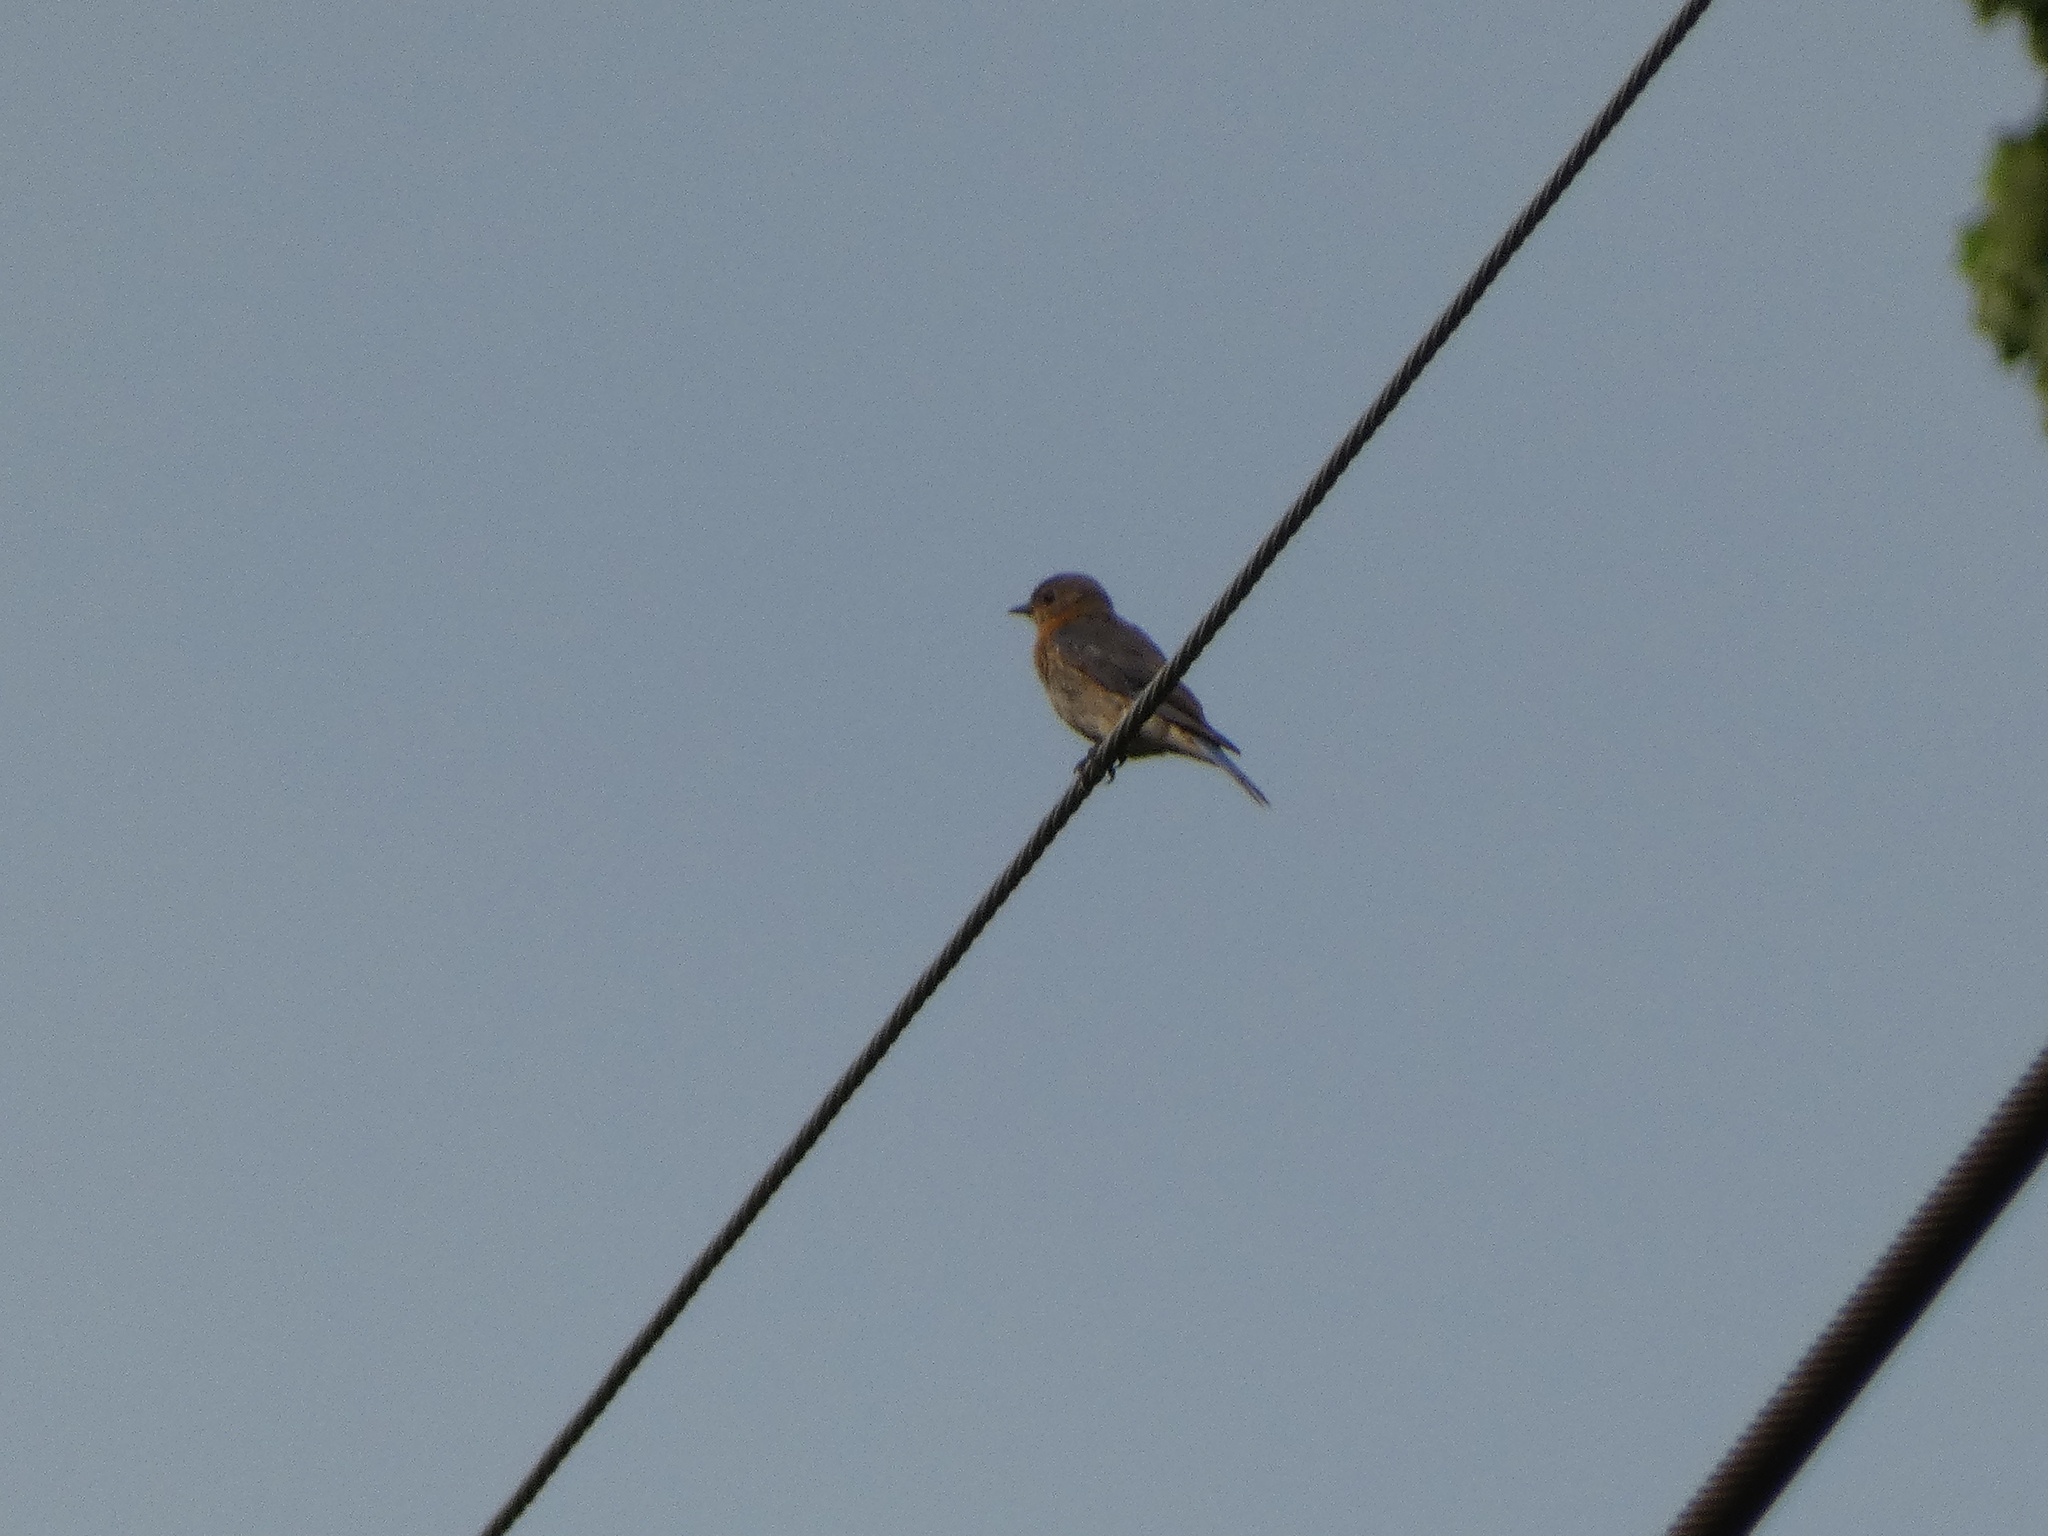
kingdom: Animalia
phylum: Chordata
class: Aves
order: Passeriformes
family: Turdidae
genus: Sialia
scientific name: Sialia sialis
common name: Eastern bluebird
